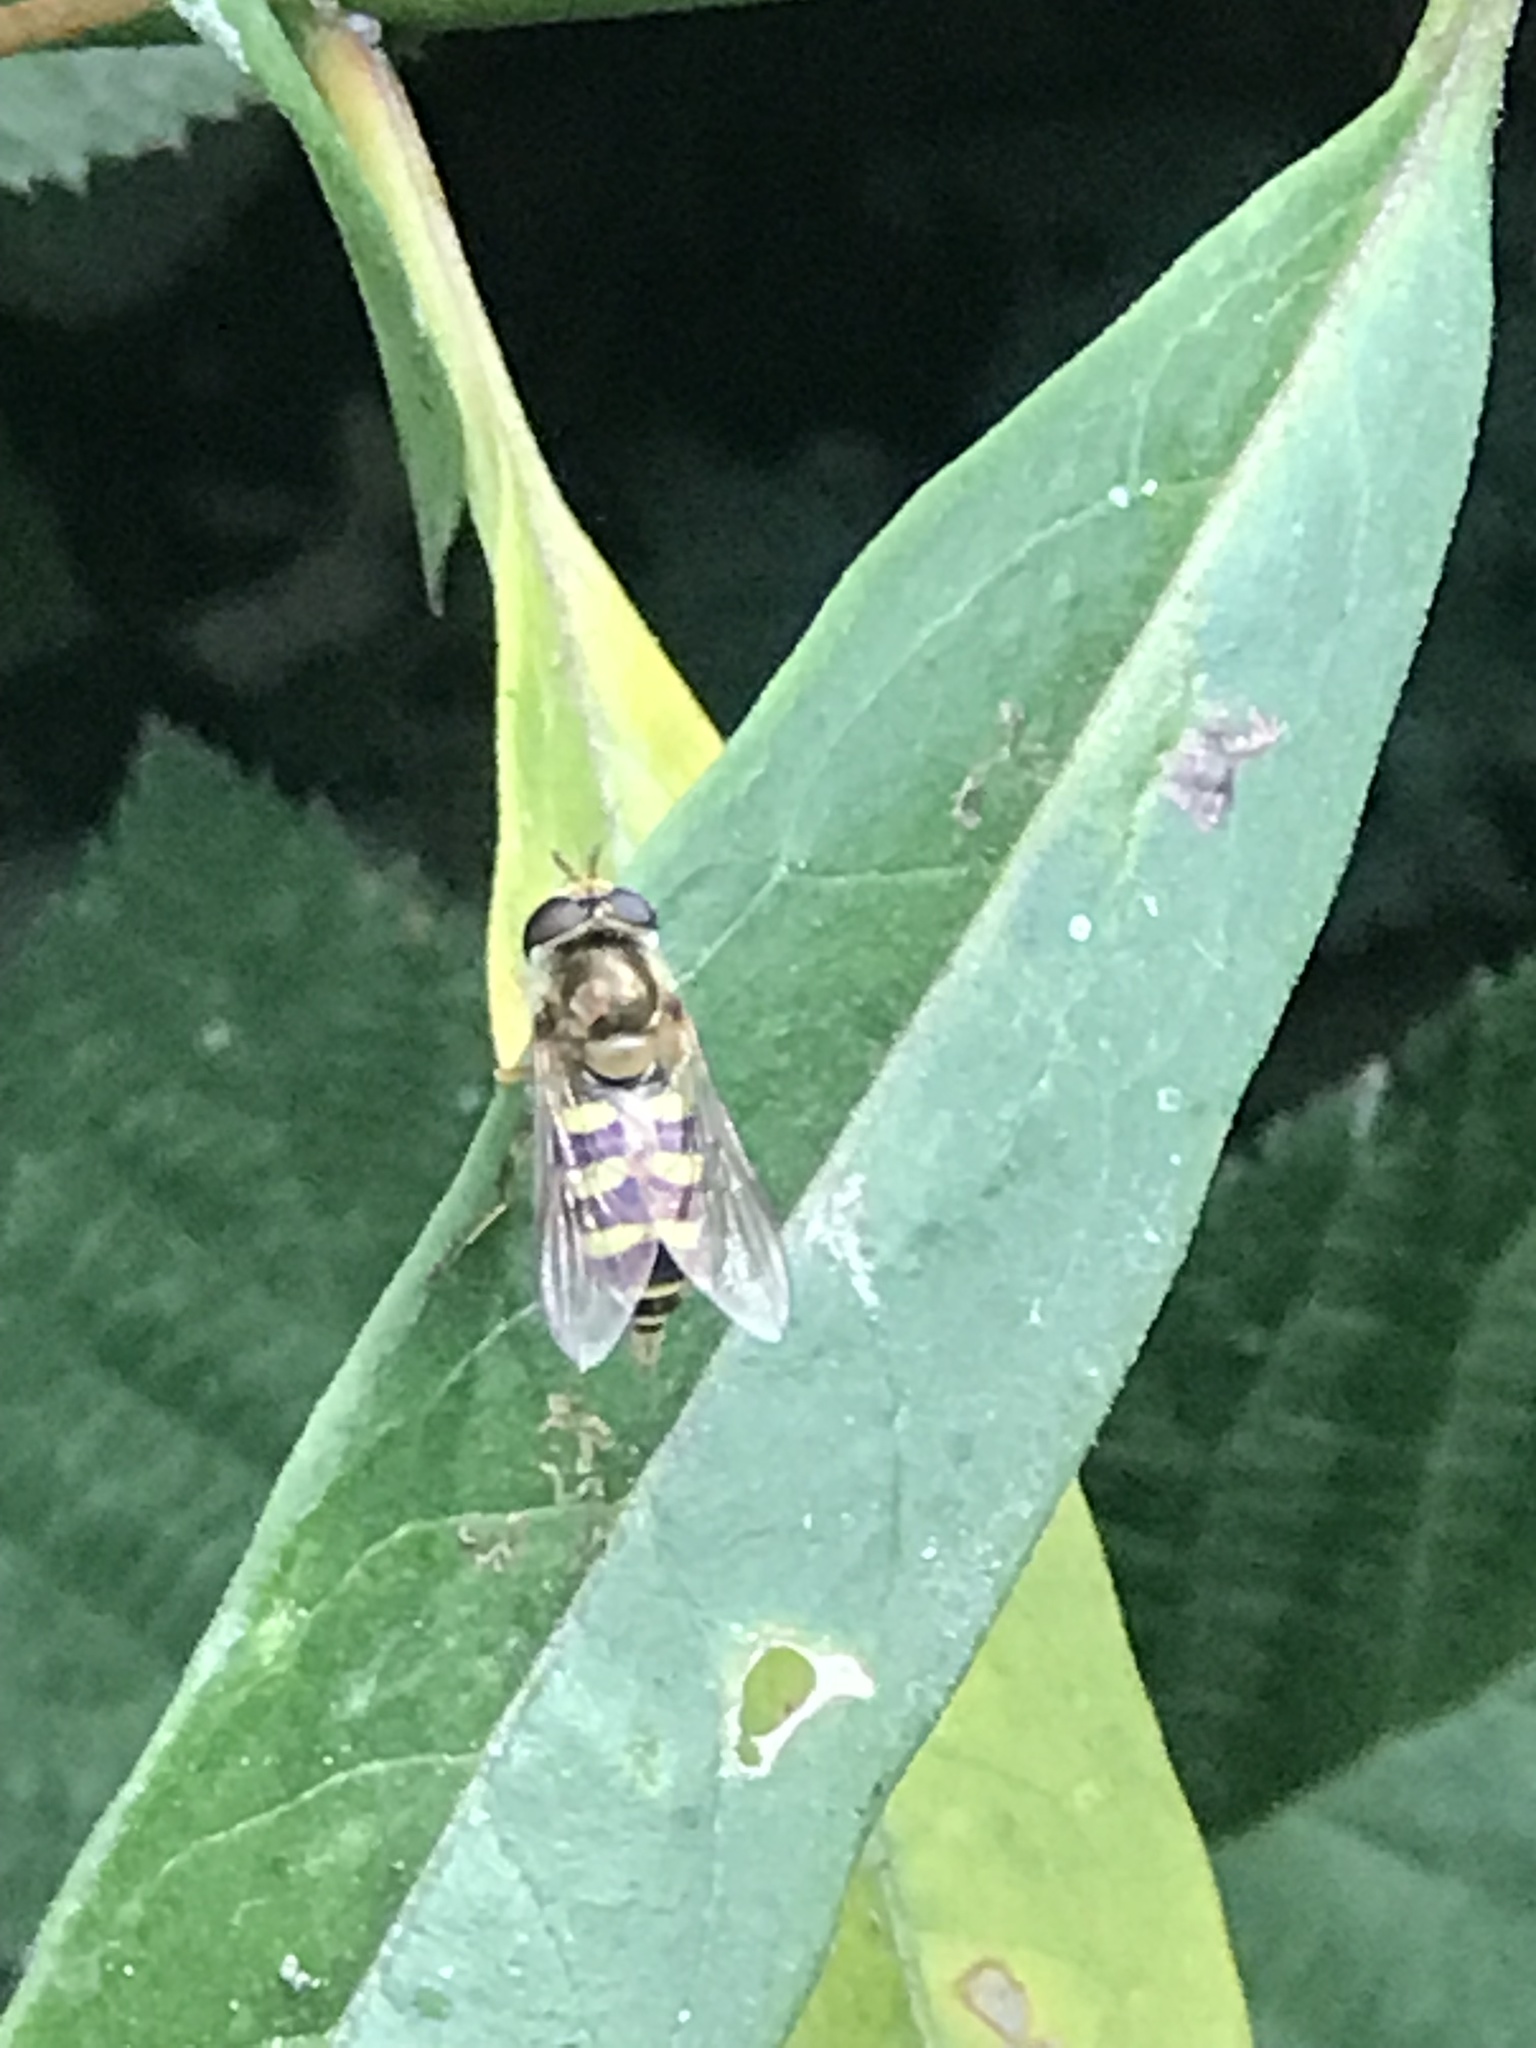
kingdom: Animalia
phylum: Arthropoda
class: Insecta
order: Diptera
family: Syrphidae
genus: Eupeodes
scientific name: Eupeodes fumipennis
